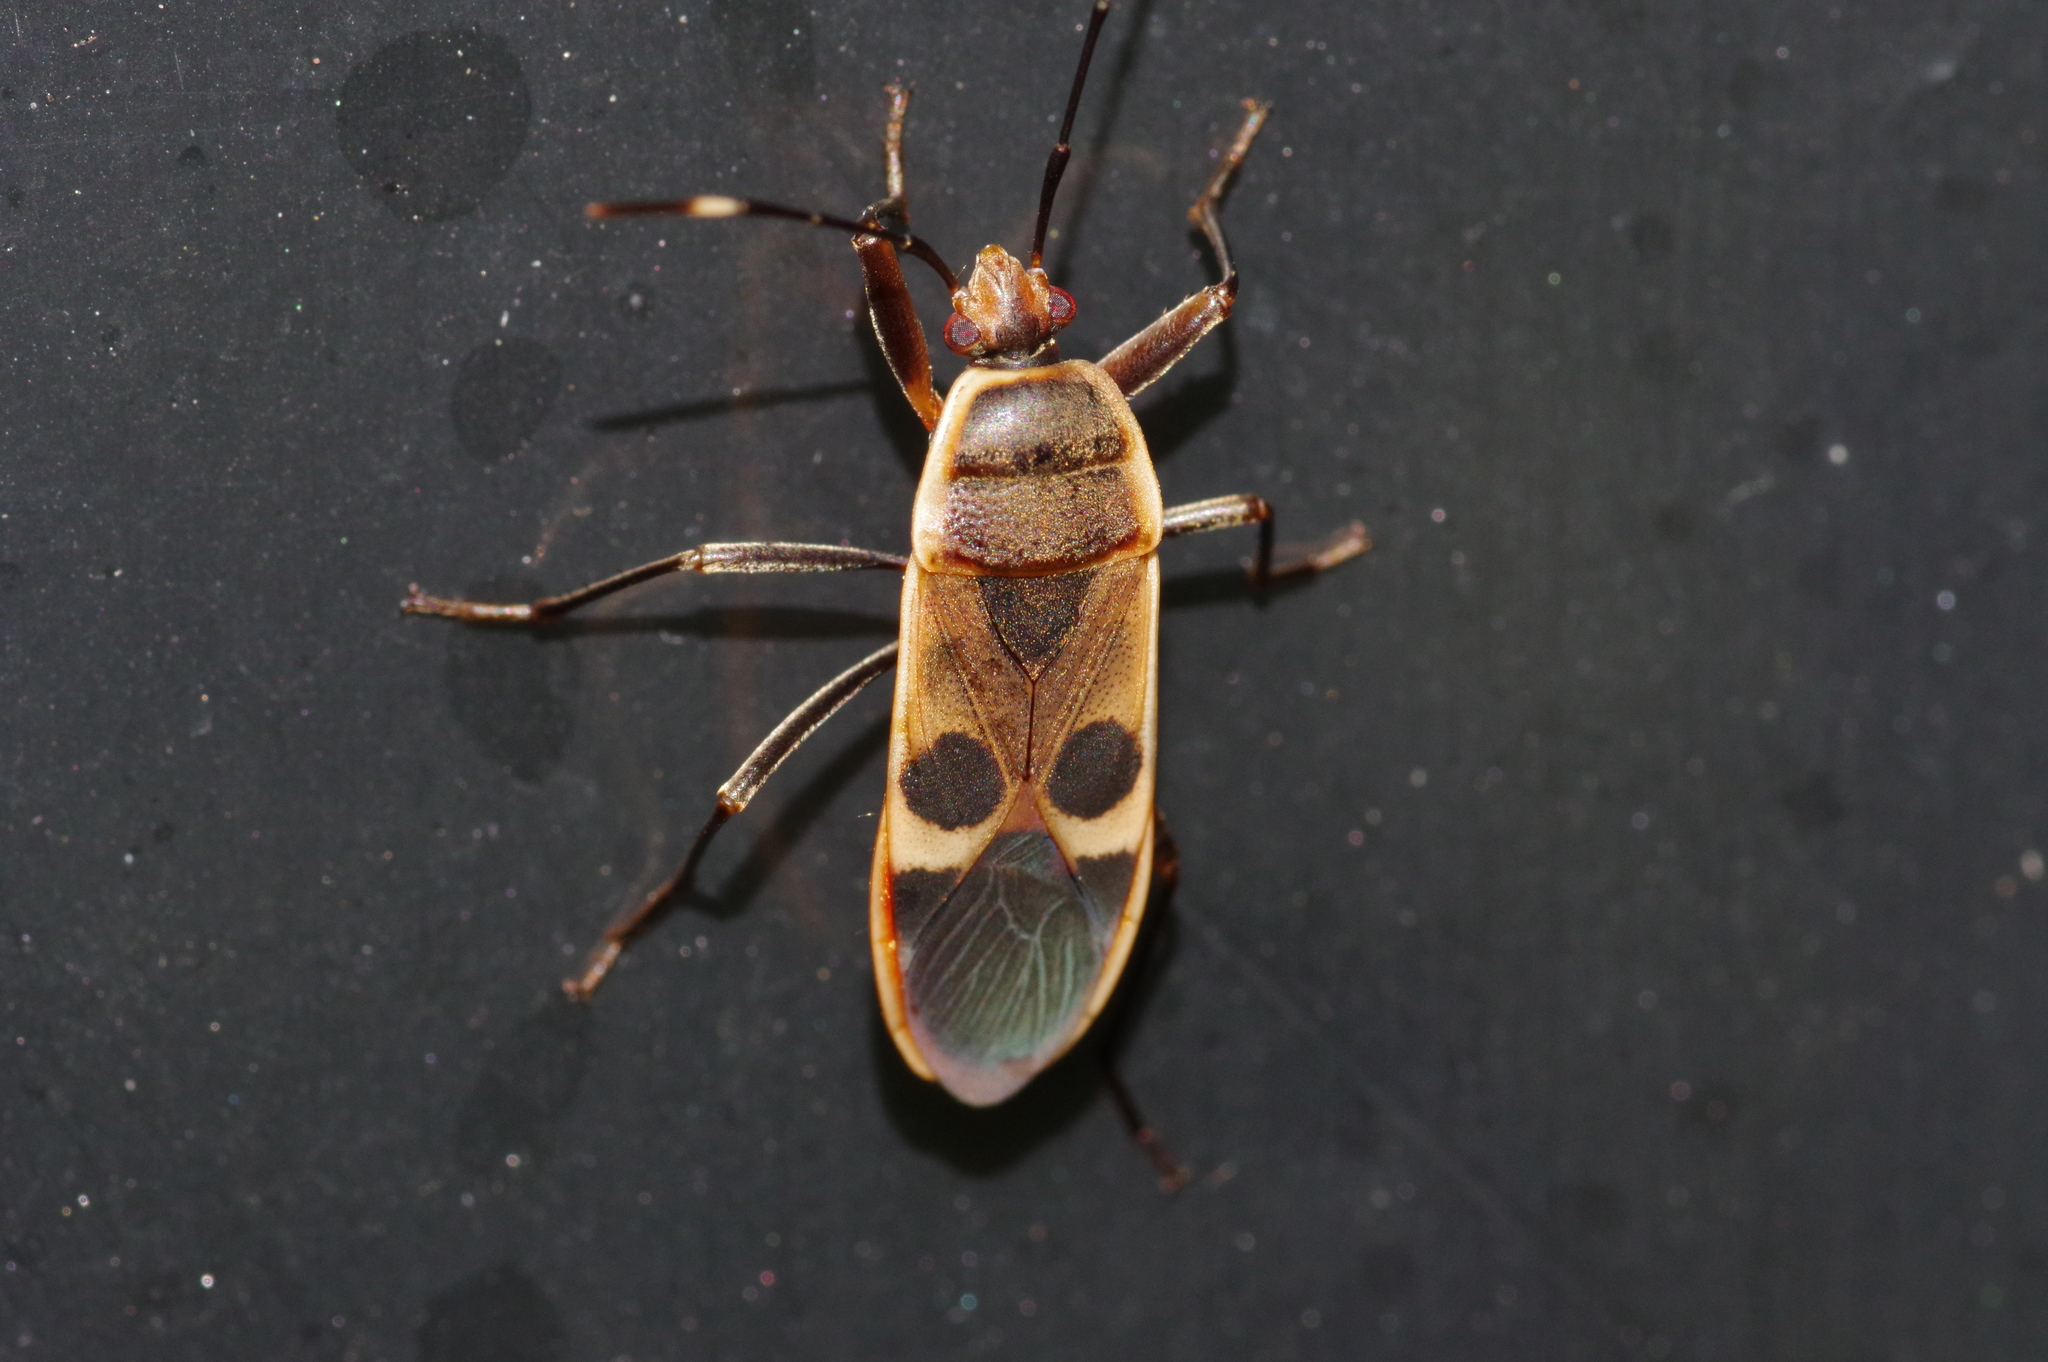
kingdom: Animalia
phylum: Arthropoda
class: Insecta
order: Hemiptera
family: Largidae
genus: Physopelta
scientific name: Physopelta gutta
